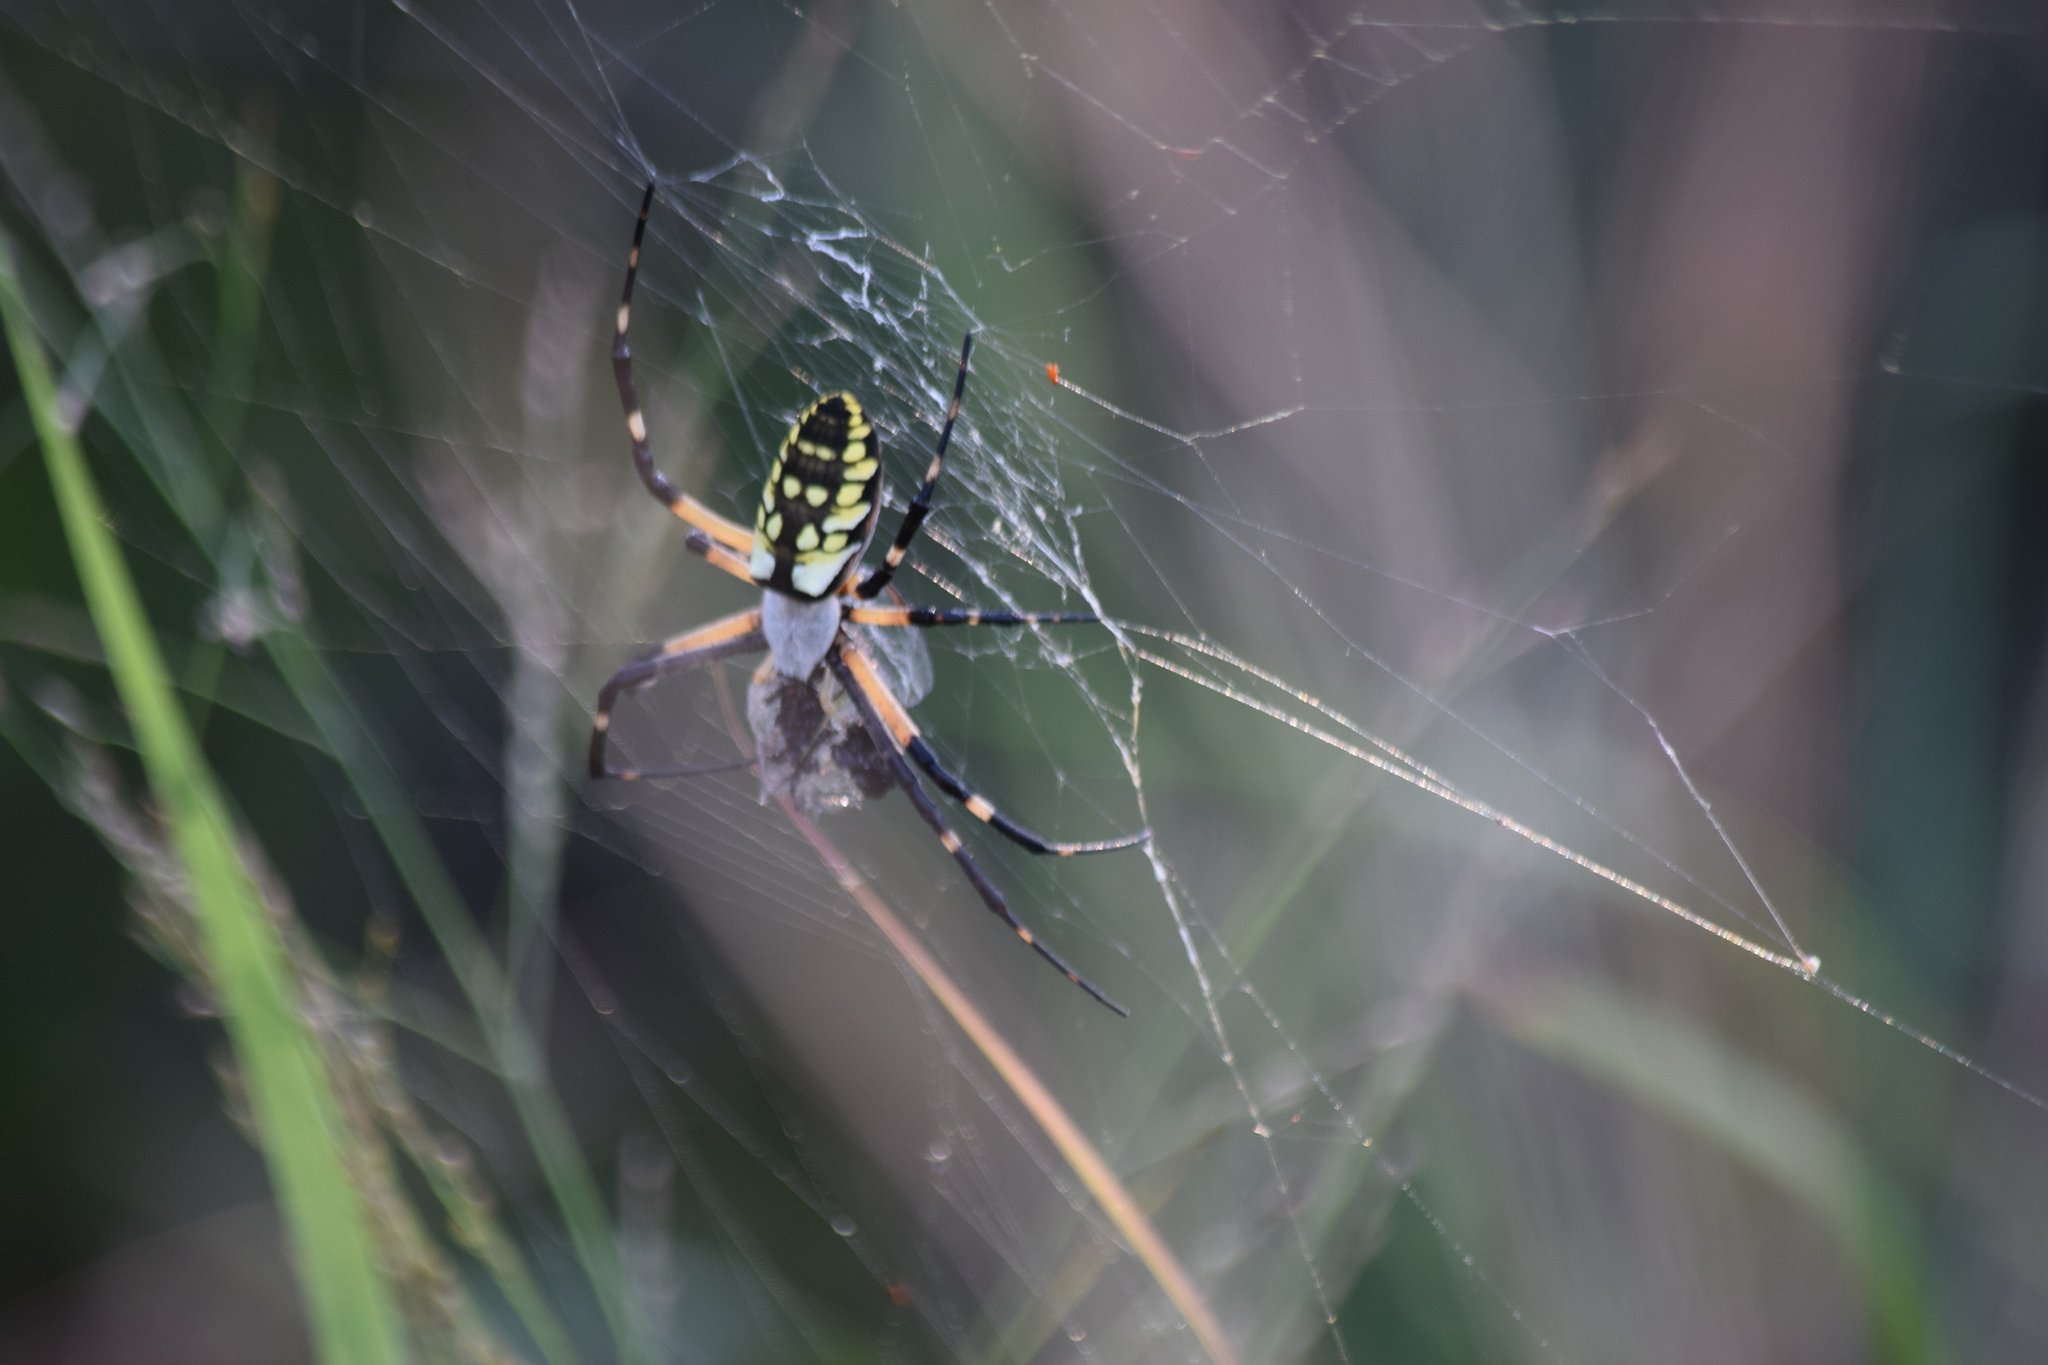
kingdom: Animalia
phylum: Arthropoda
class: Arachnida
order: Araneae
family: Araneidae
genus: Argiope
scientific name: Argiope aurantia
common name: Orb weavers
